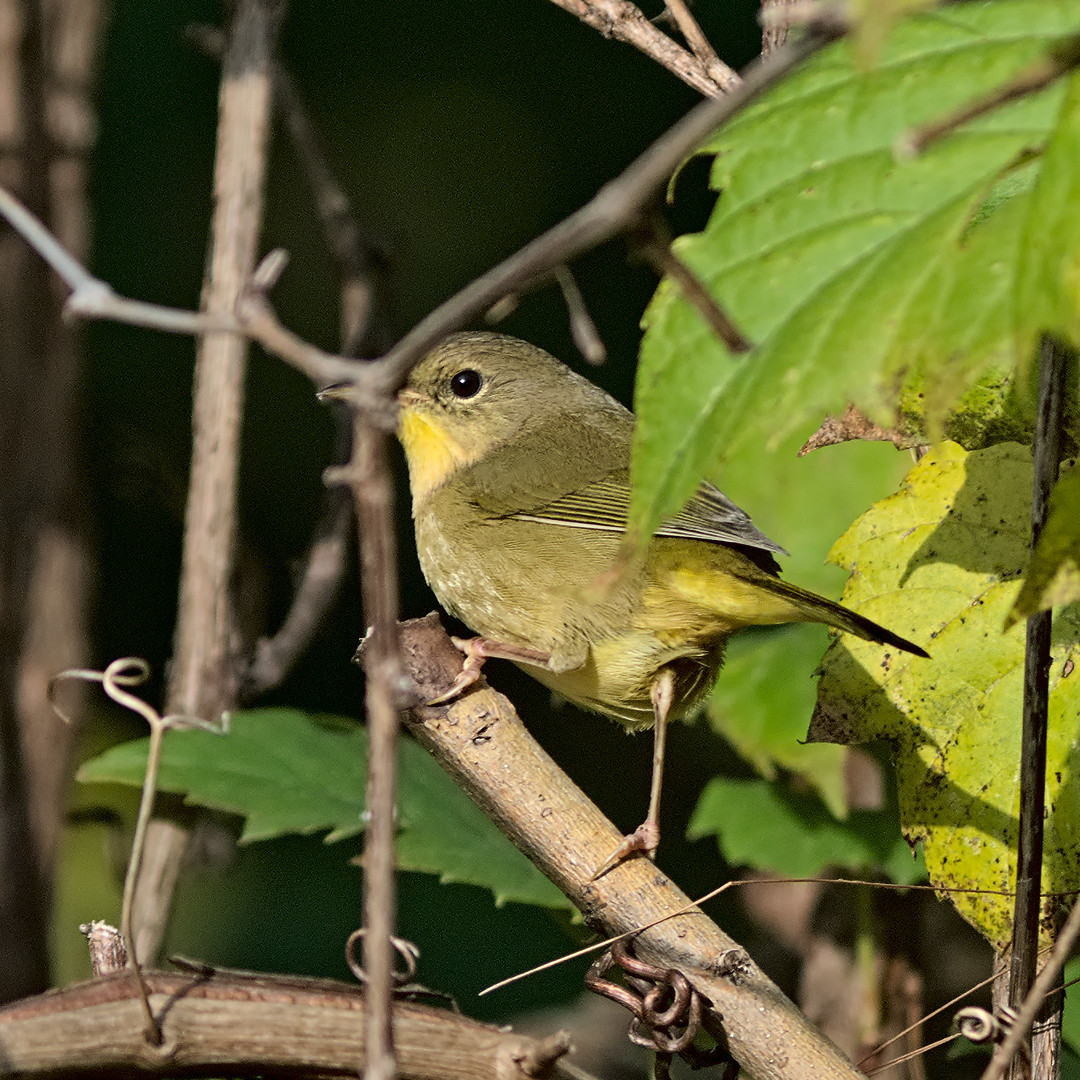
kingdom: Animalia
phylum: Chordata
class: Aves
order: Passeriformes
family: Parulidae
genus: Geothlypis
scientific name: Geothlypis trichas
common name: Common yellowthroat
